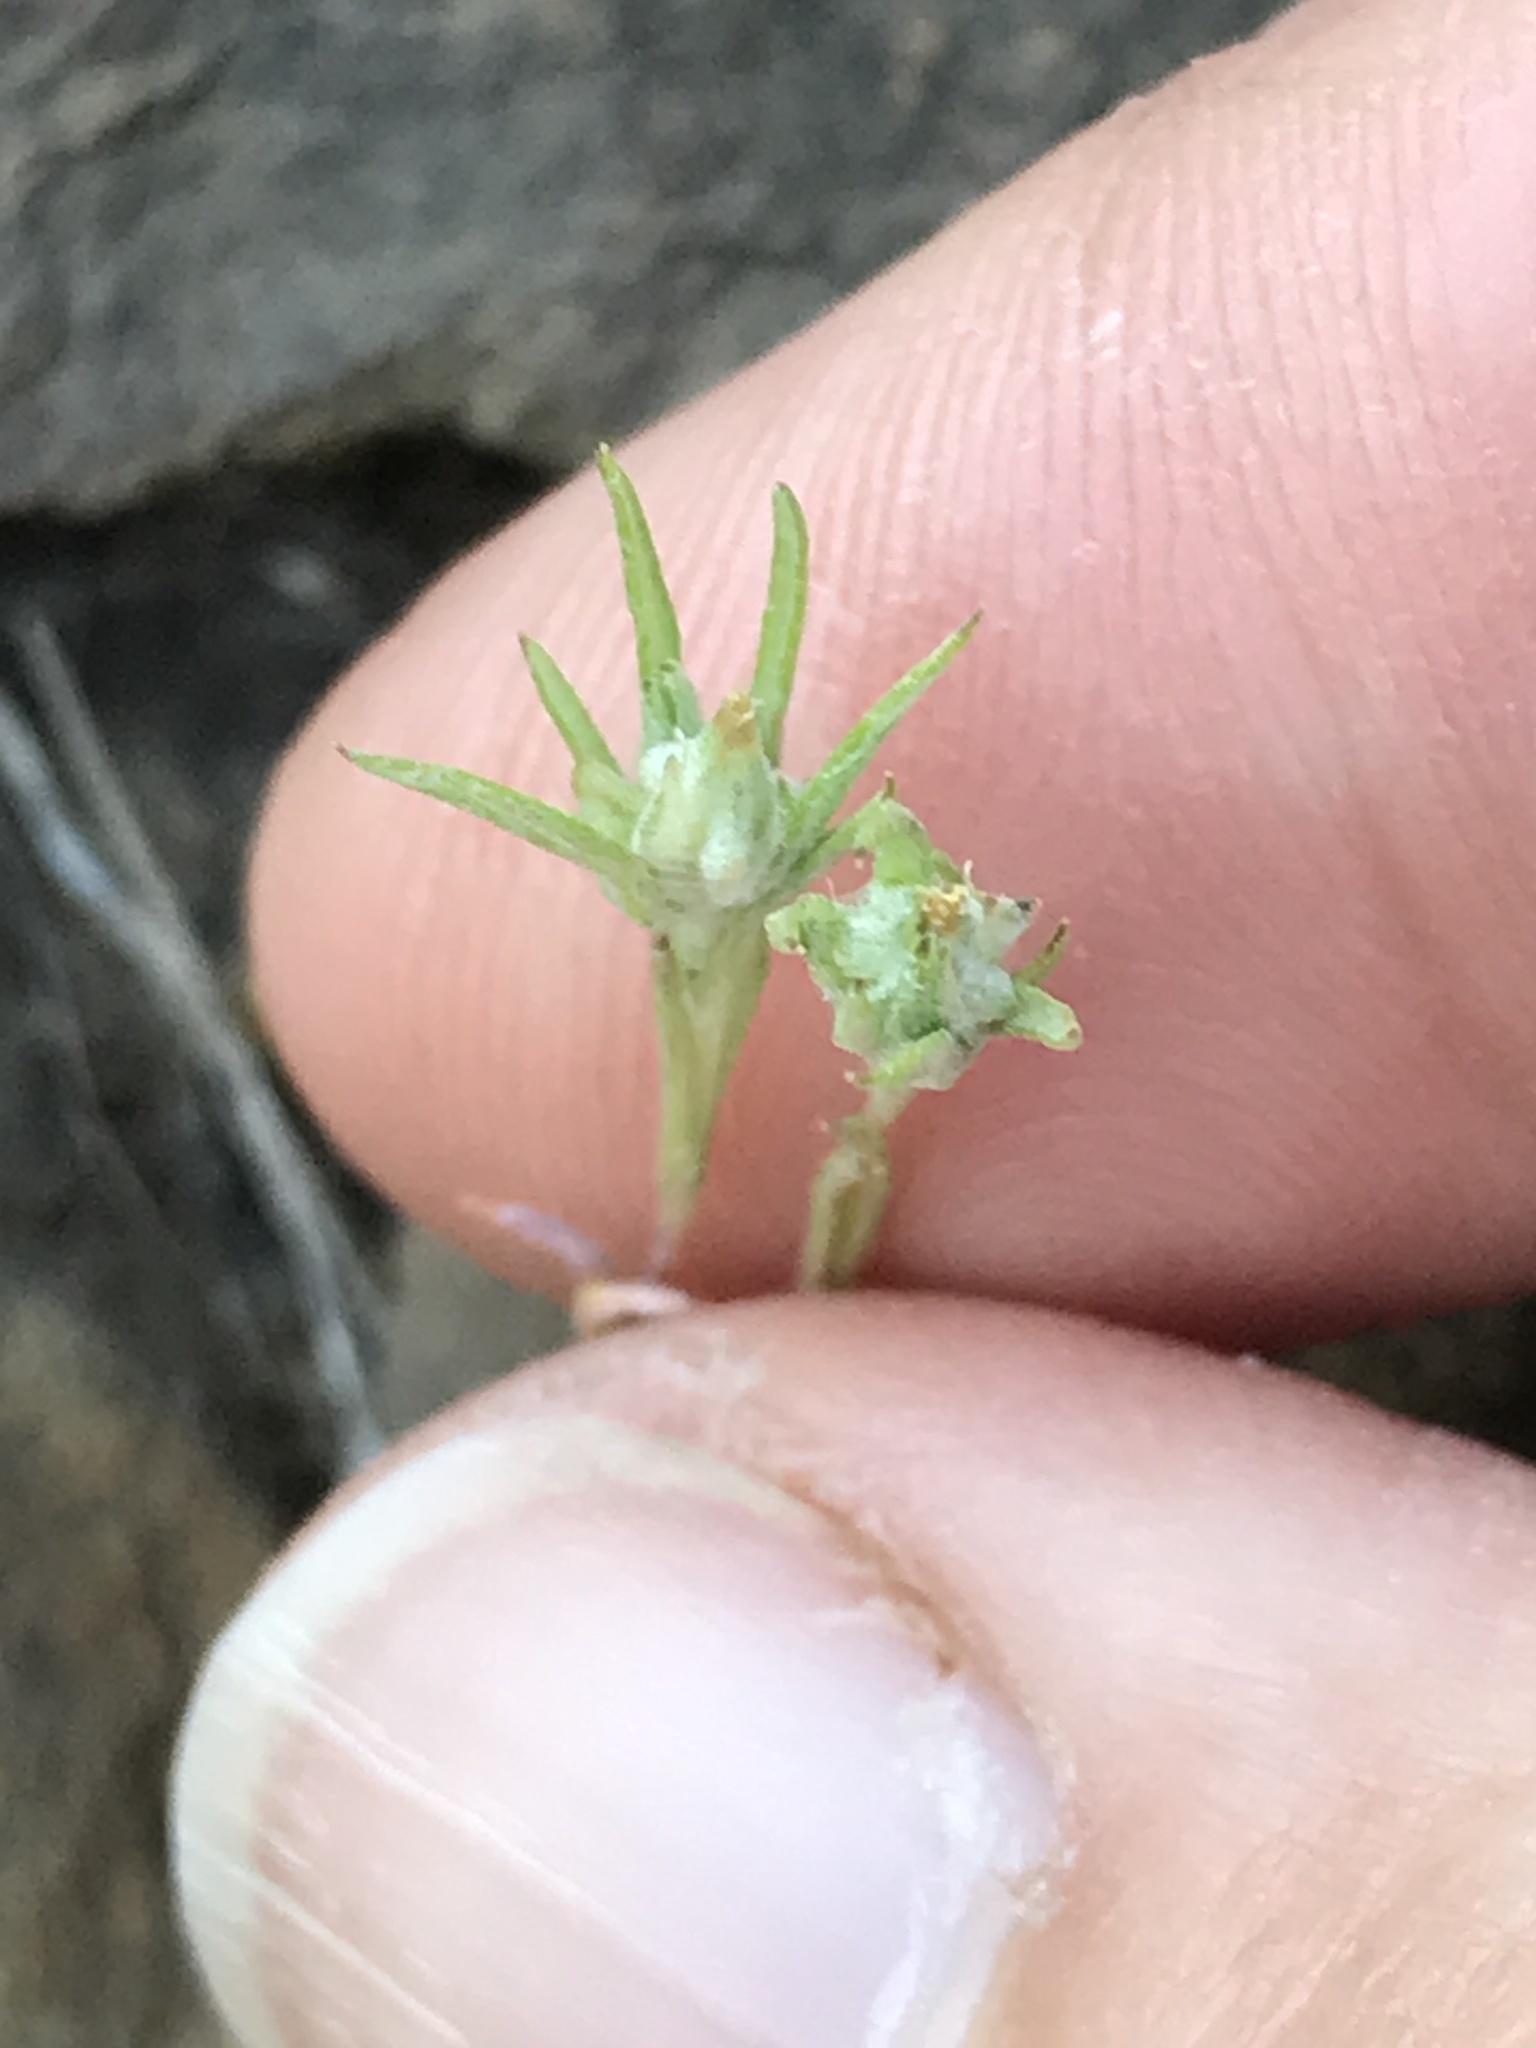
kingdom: Plantae
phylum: Tracheophyta
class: Magnoliopsida
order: Asterales
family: Asteraceae
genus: Logfia
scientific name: Logfia gallica
